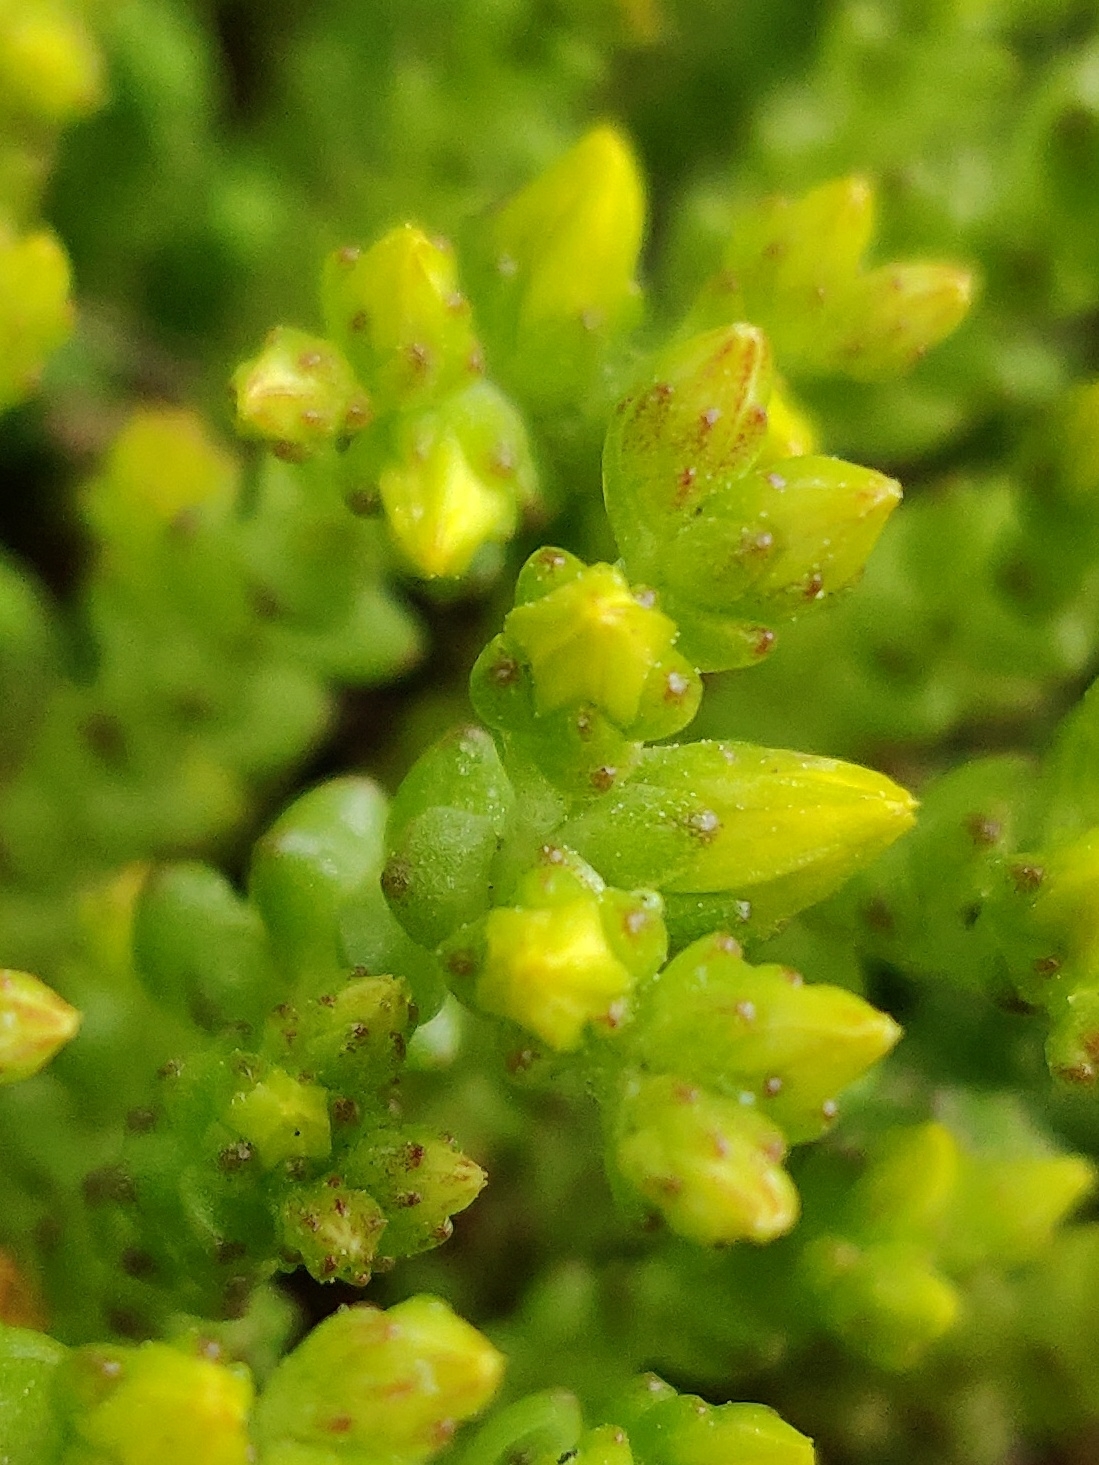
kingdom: Plantae
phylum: Tracheophyta
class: Magnoliopsida
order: Saxifragales
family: Crassulaceae
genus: Sedum
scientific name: Sedum acre
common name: Biting stonecrop
